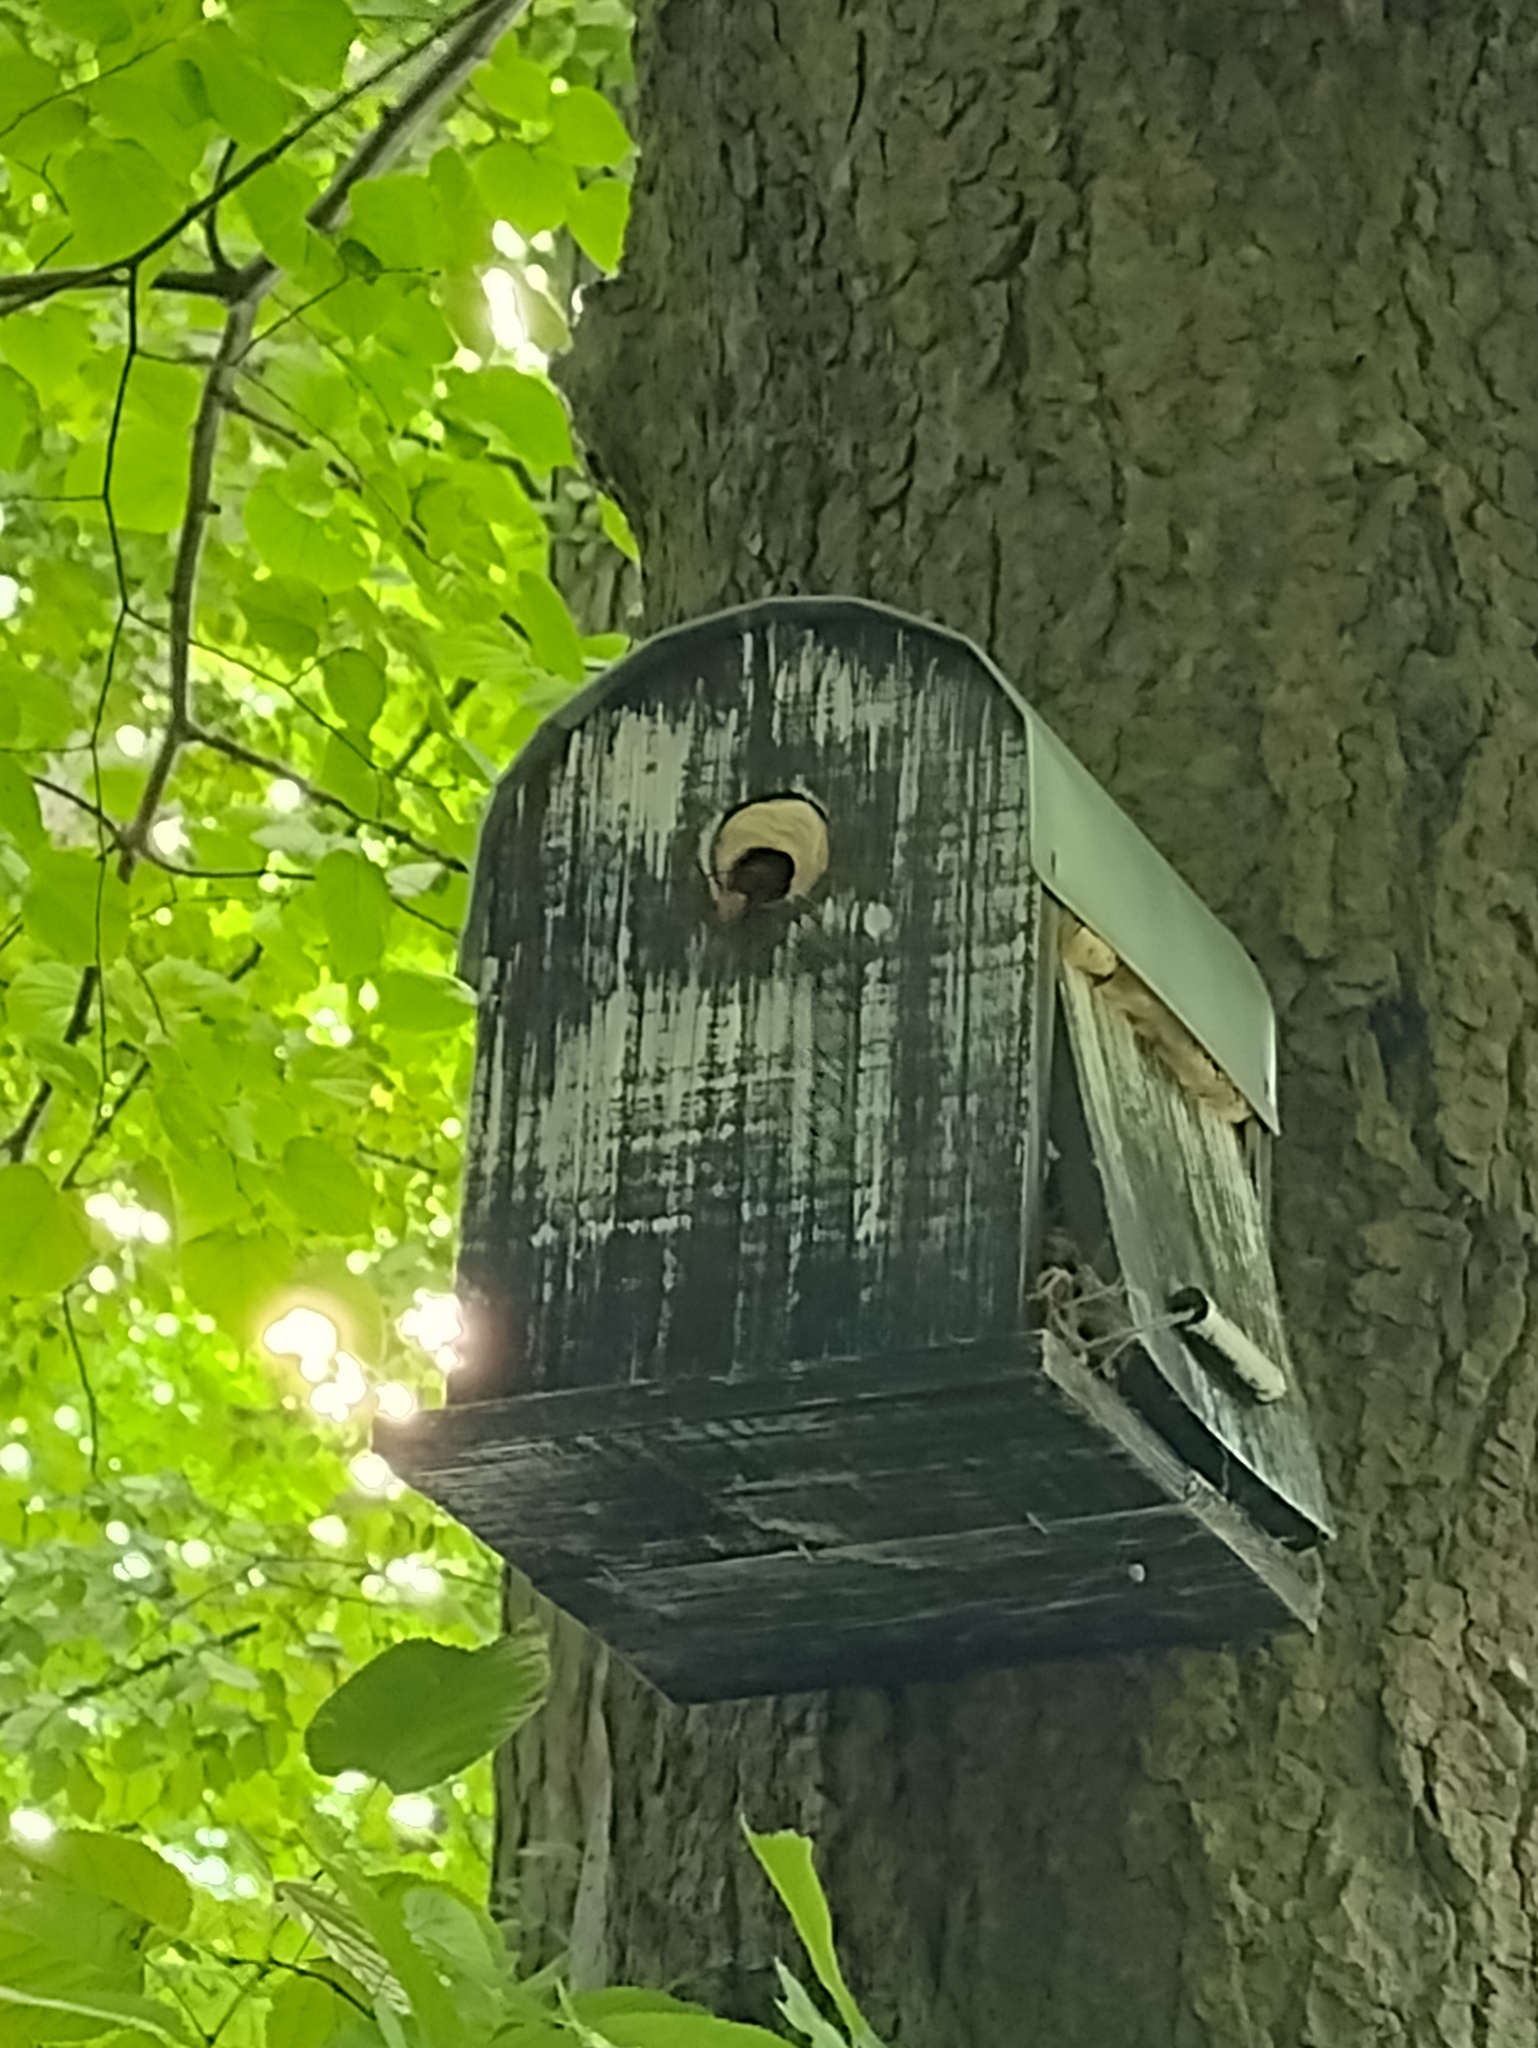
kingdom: Animalia
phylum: Arthropoda
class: Insecta
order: Hymenoptera
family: Vespidae
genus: Vespa
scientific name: Vespa crabro
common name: Hornet
